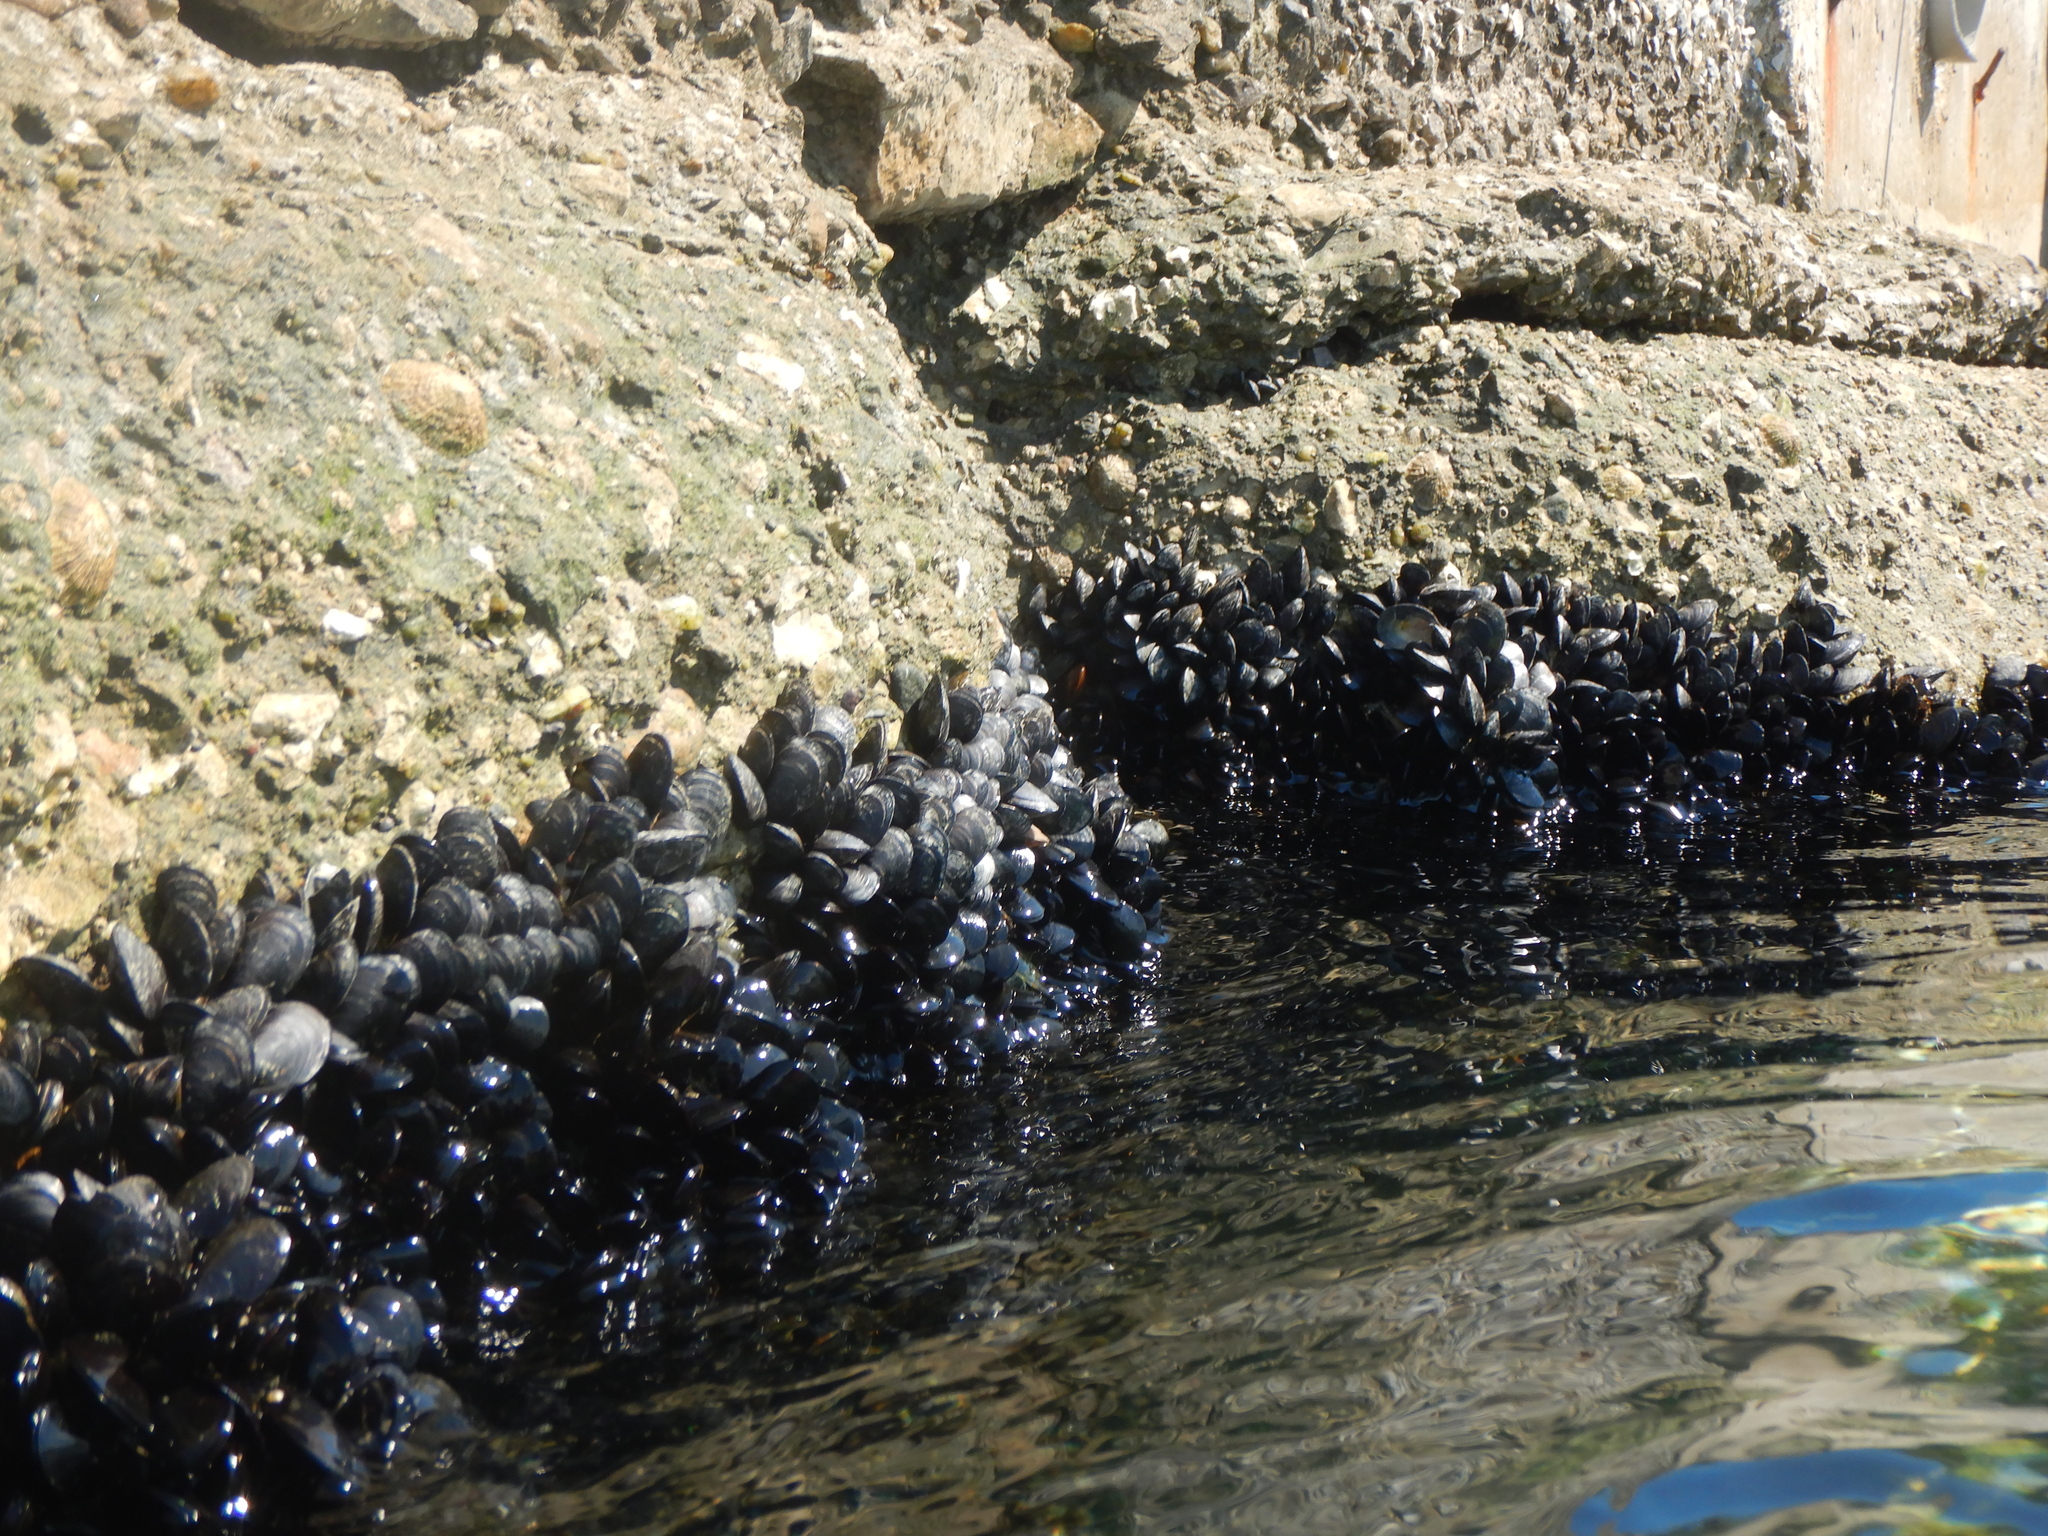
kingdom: Animalia
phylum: Mollusca
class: Bivalvia
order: Mytilida
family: Mytilidae
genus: Mytilus
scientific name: Mytilus galloprovincialis
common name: Mediterranean mussel
